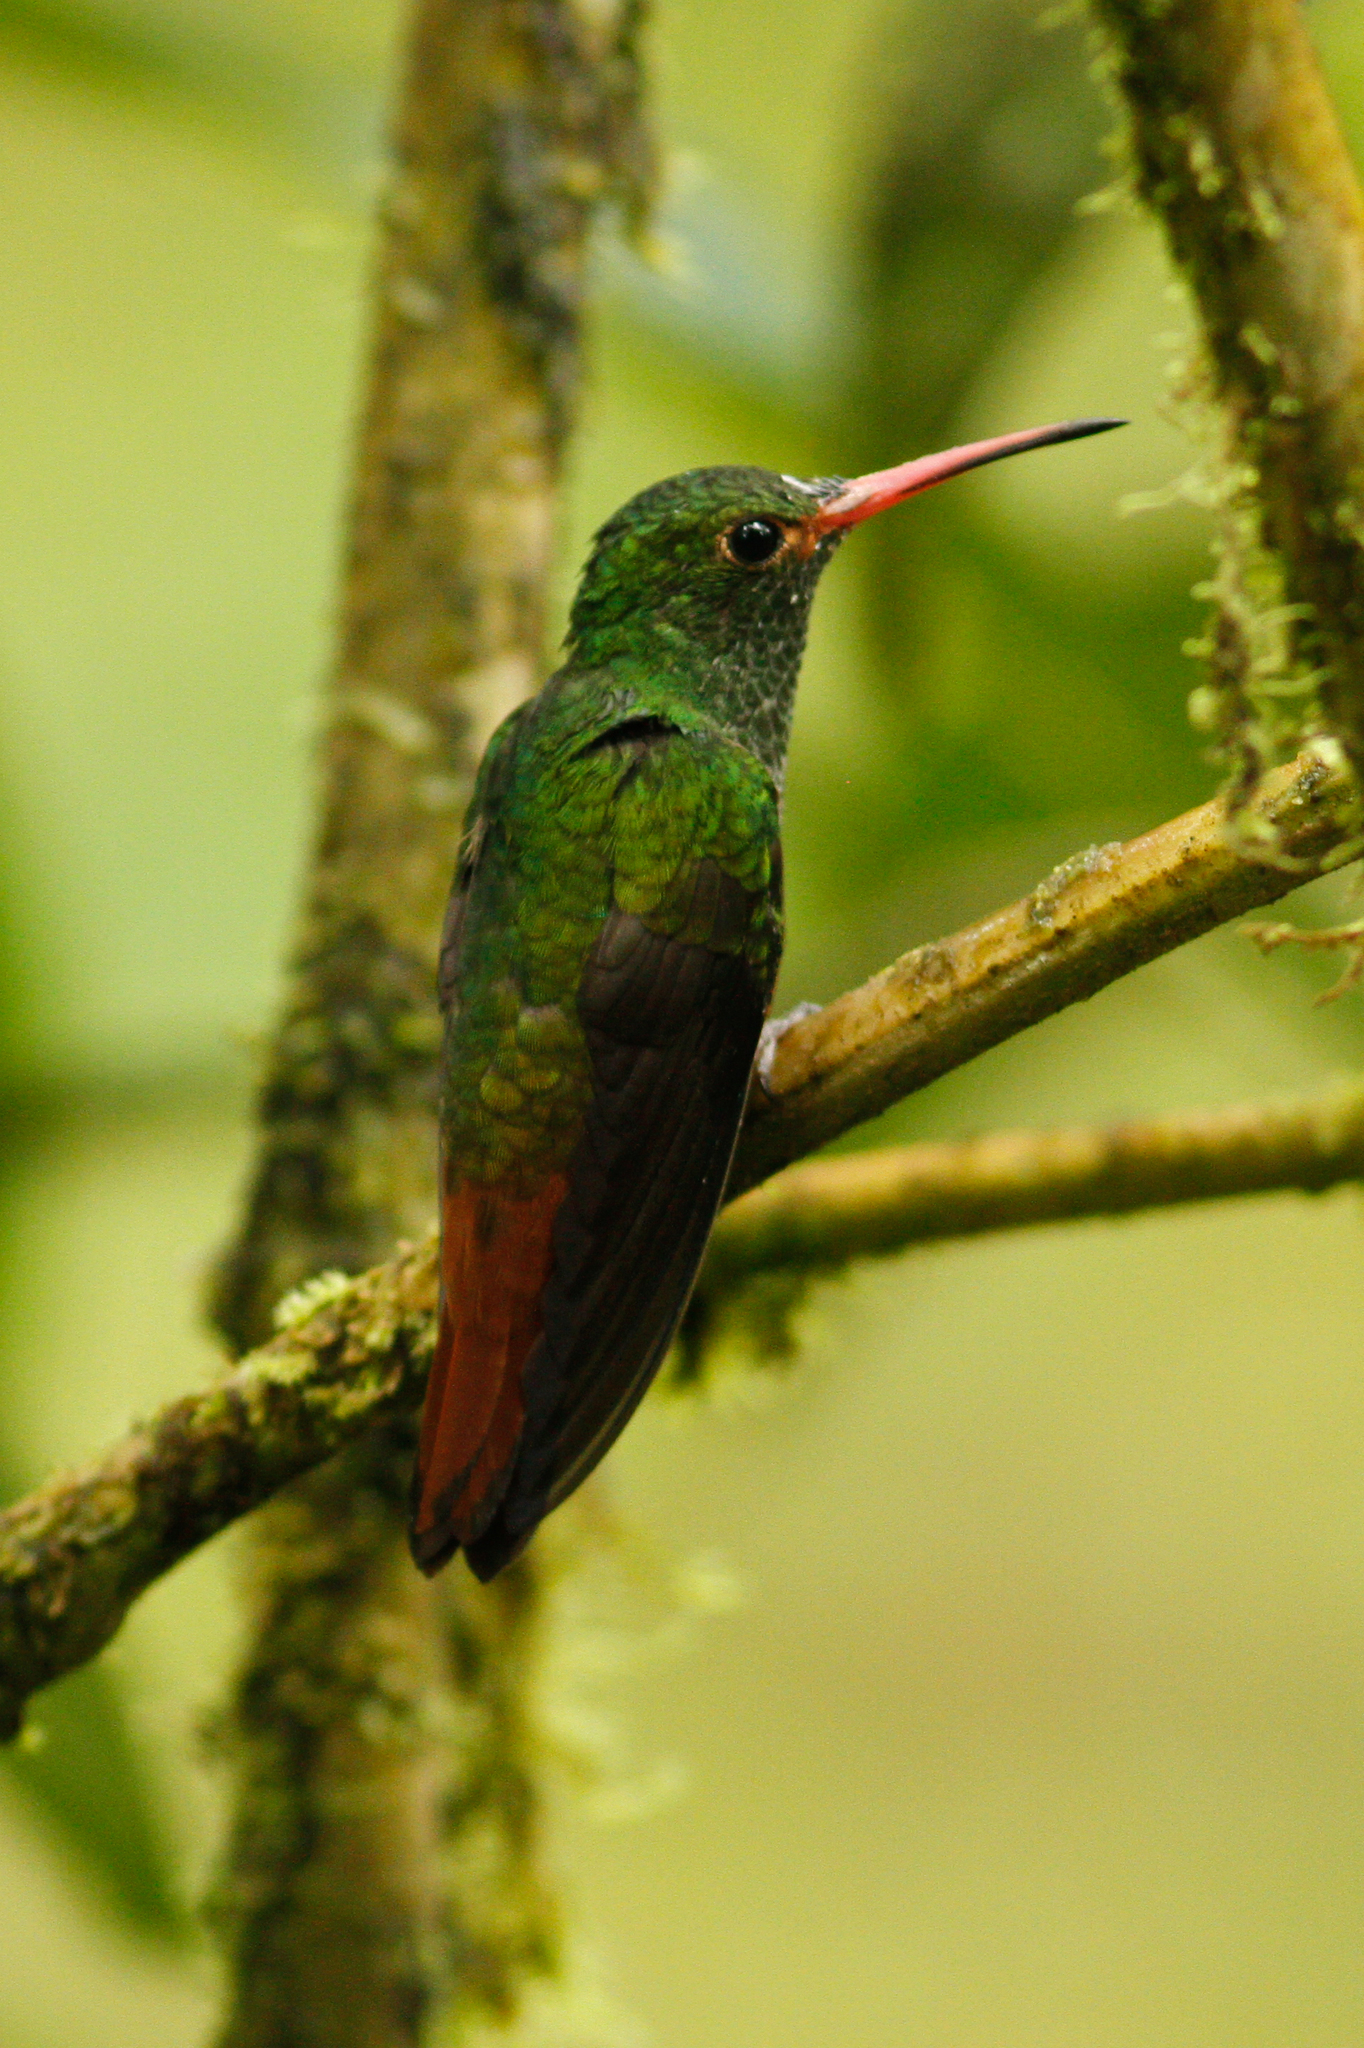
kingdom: Animalia
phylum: Chordata
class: Aves
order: Apodiformes
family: Trochilidae
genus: Amazilia
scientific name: Amazilia tzacatl
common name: Rufous-tailed hummingbird
